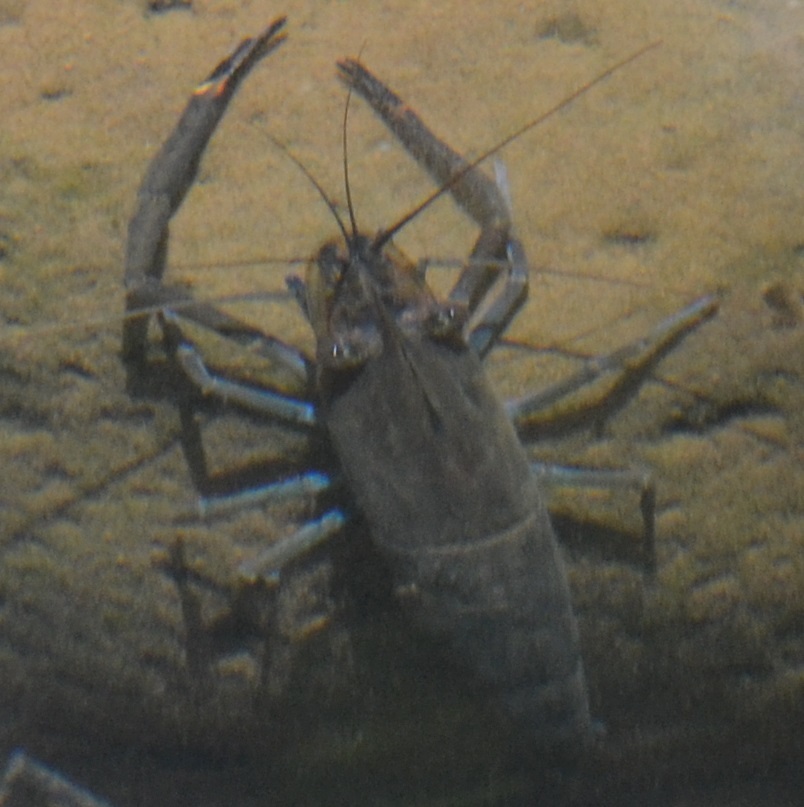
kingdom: Animalia
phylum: Arthropoda
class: Malacostraca
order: Decapoda
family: Palaemonidae
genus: Macrobrachium
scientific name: Macrobrachium lar
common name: Monkey river prawn
